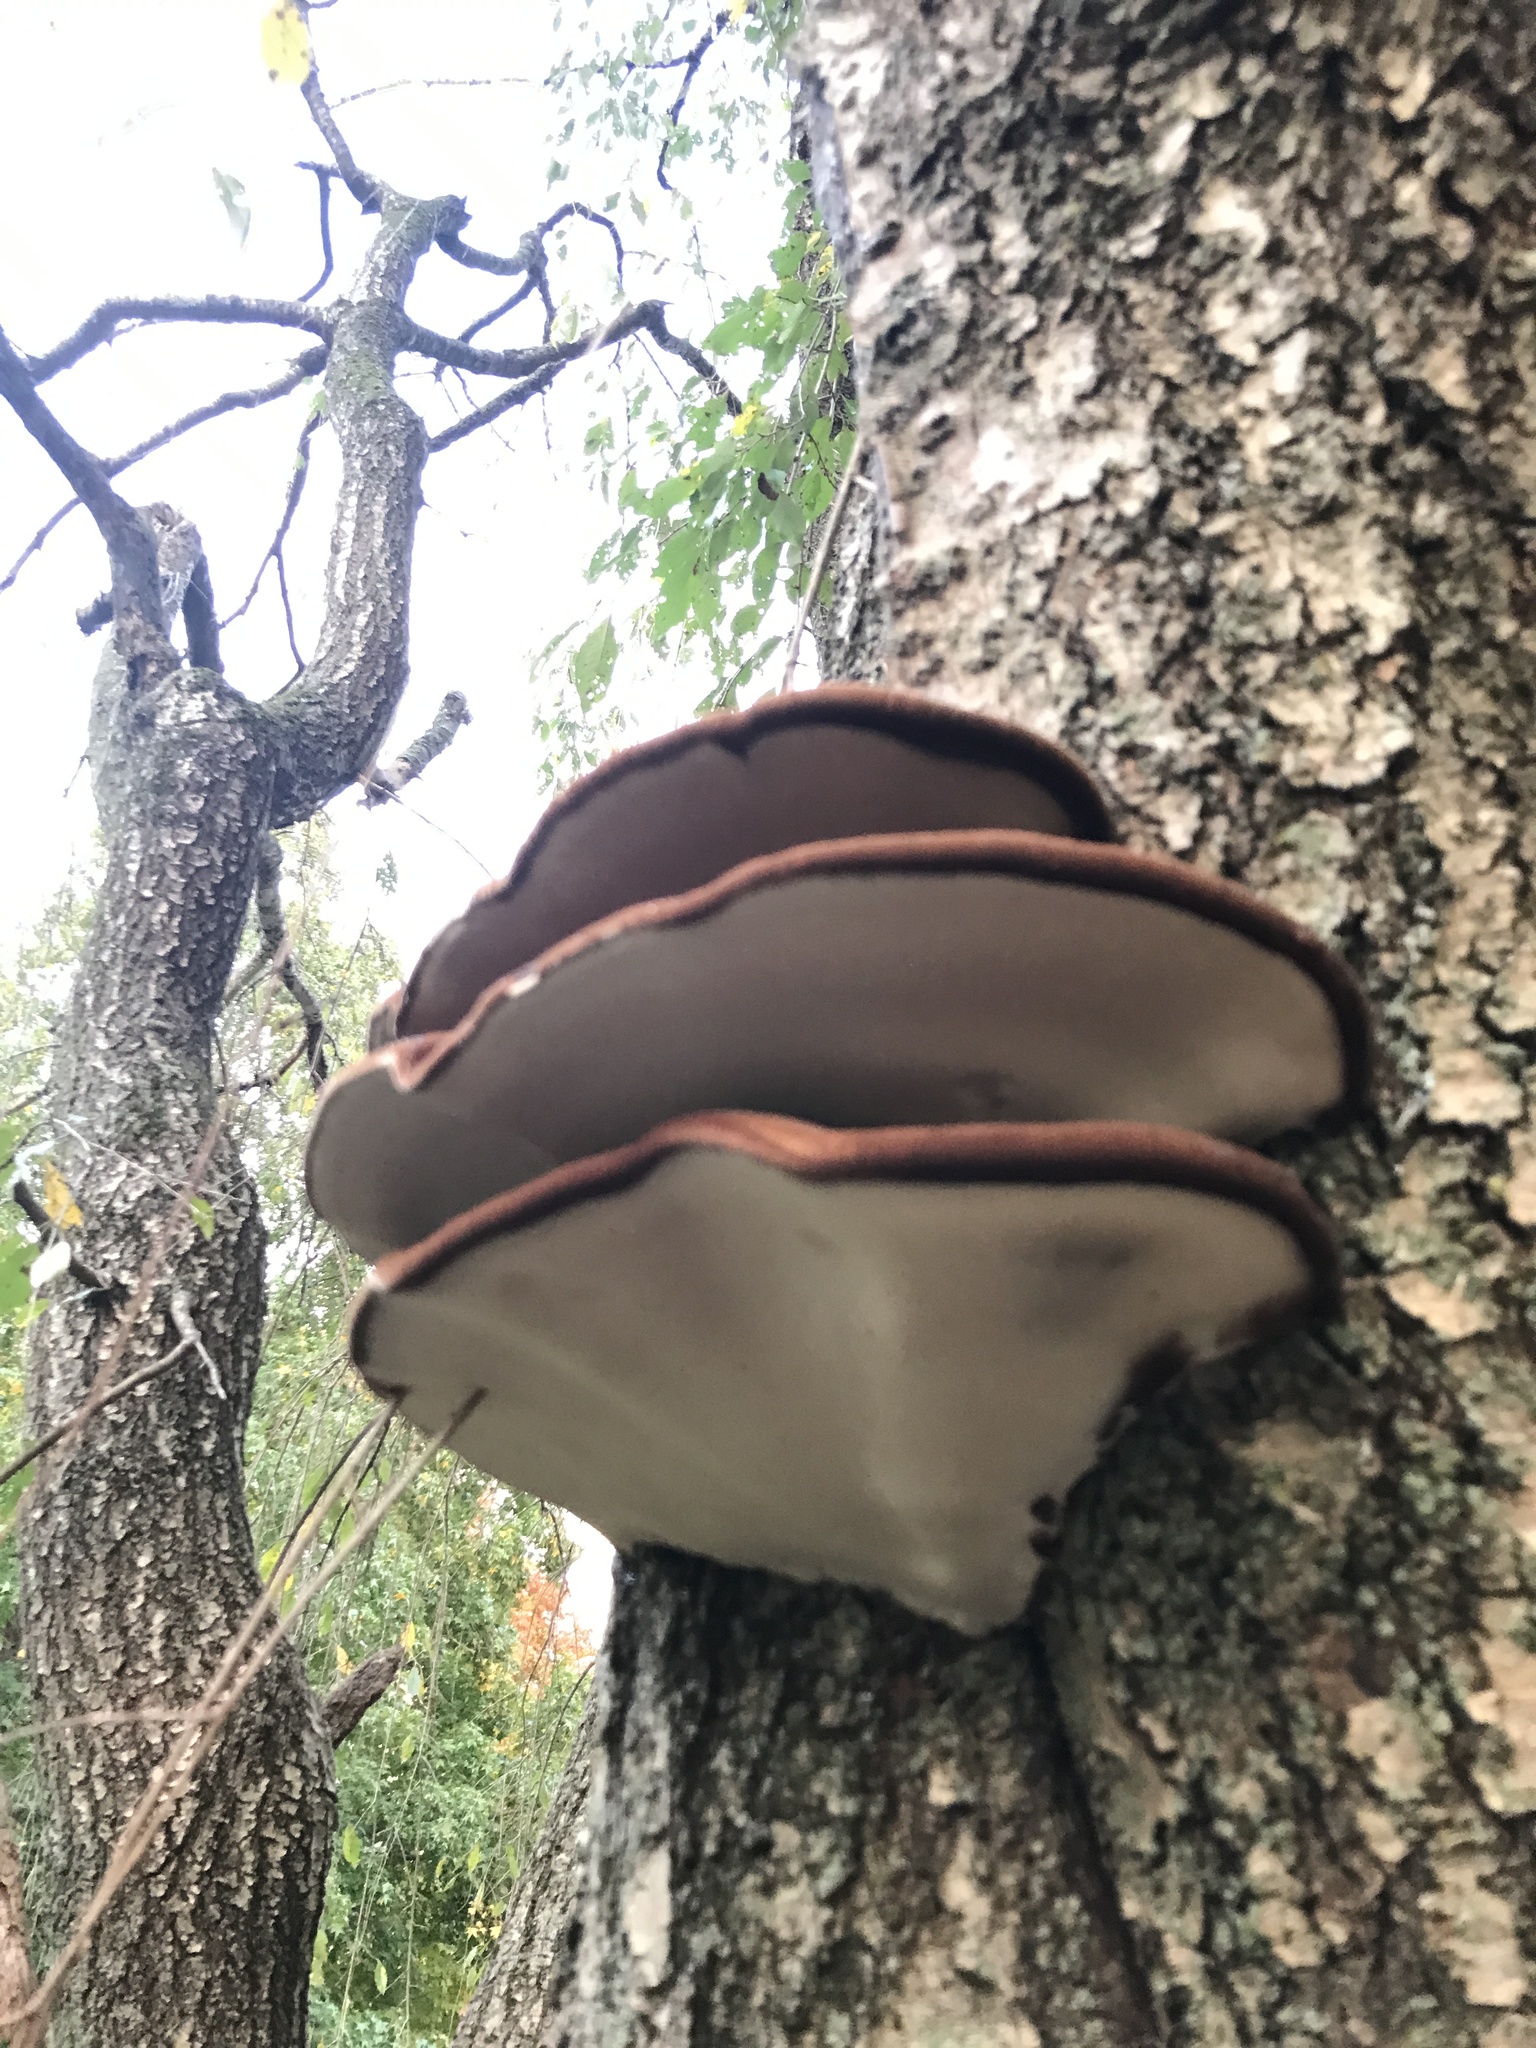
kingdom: Fungi
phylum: Basidiomycota
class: Agaricomycetes
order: Polyporales
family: Ischnodermataceae
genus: Ischnoderma
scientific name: Ischnoderma resinosum
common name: Resinous polypore
